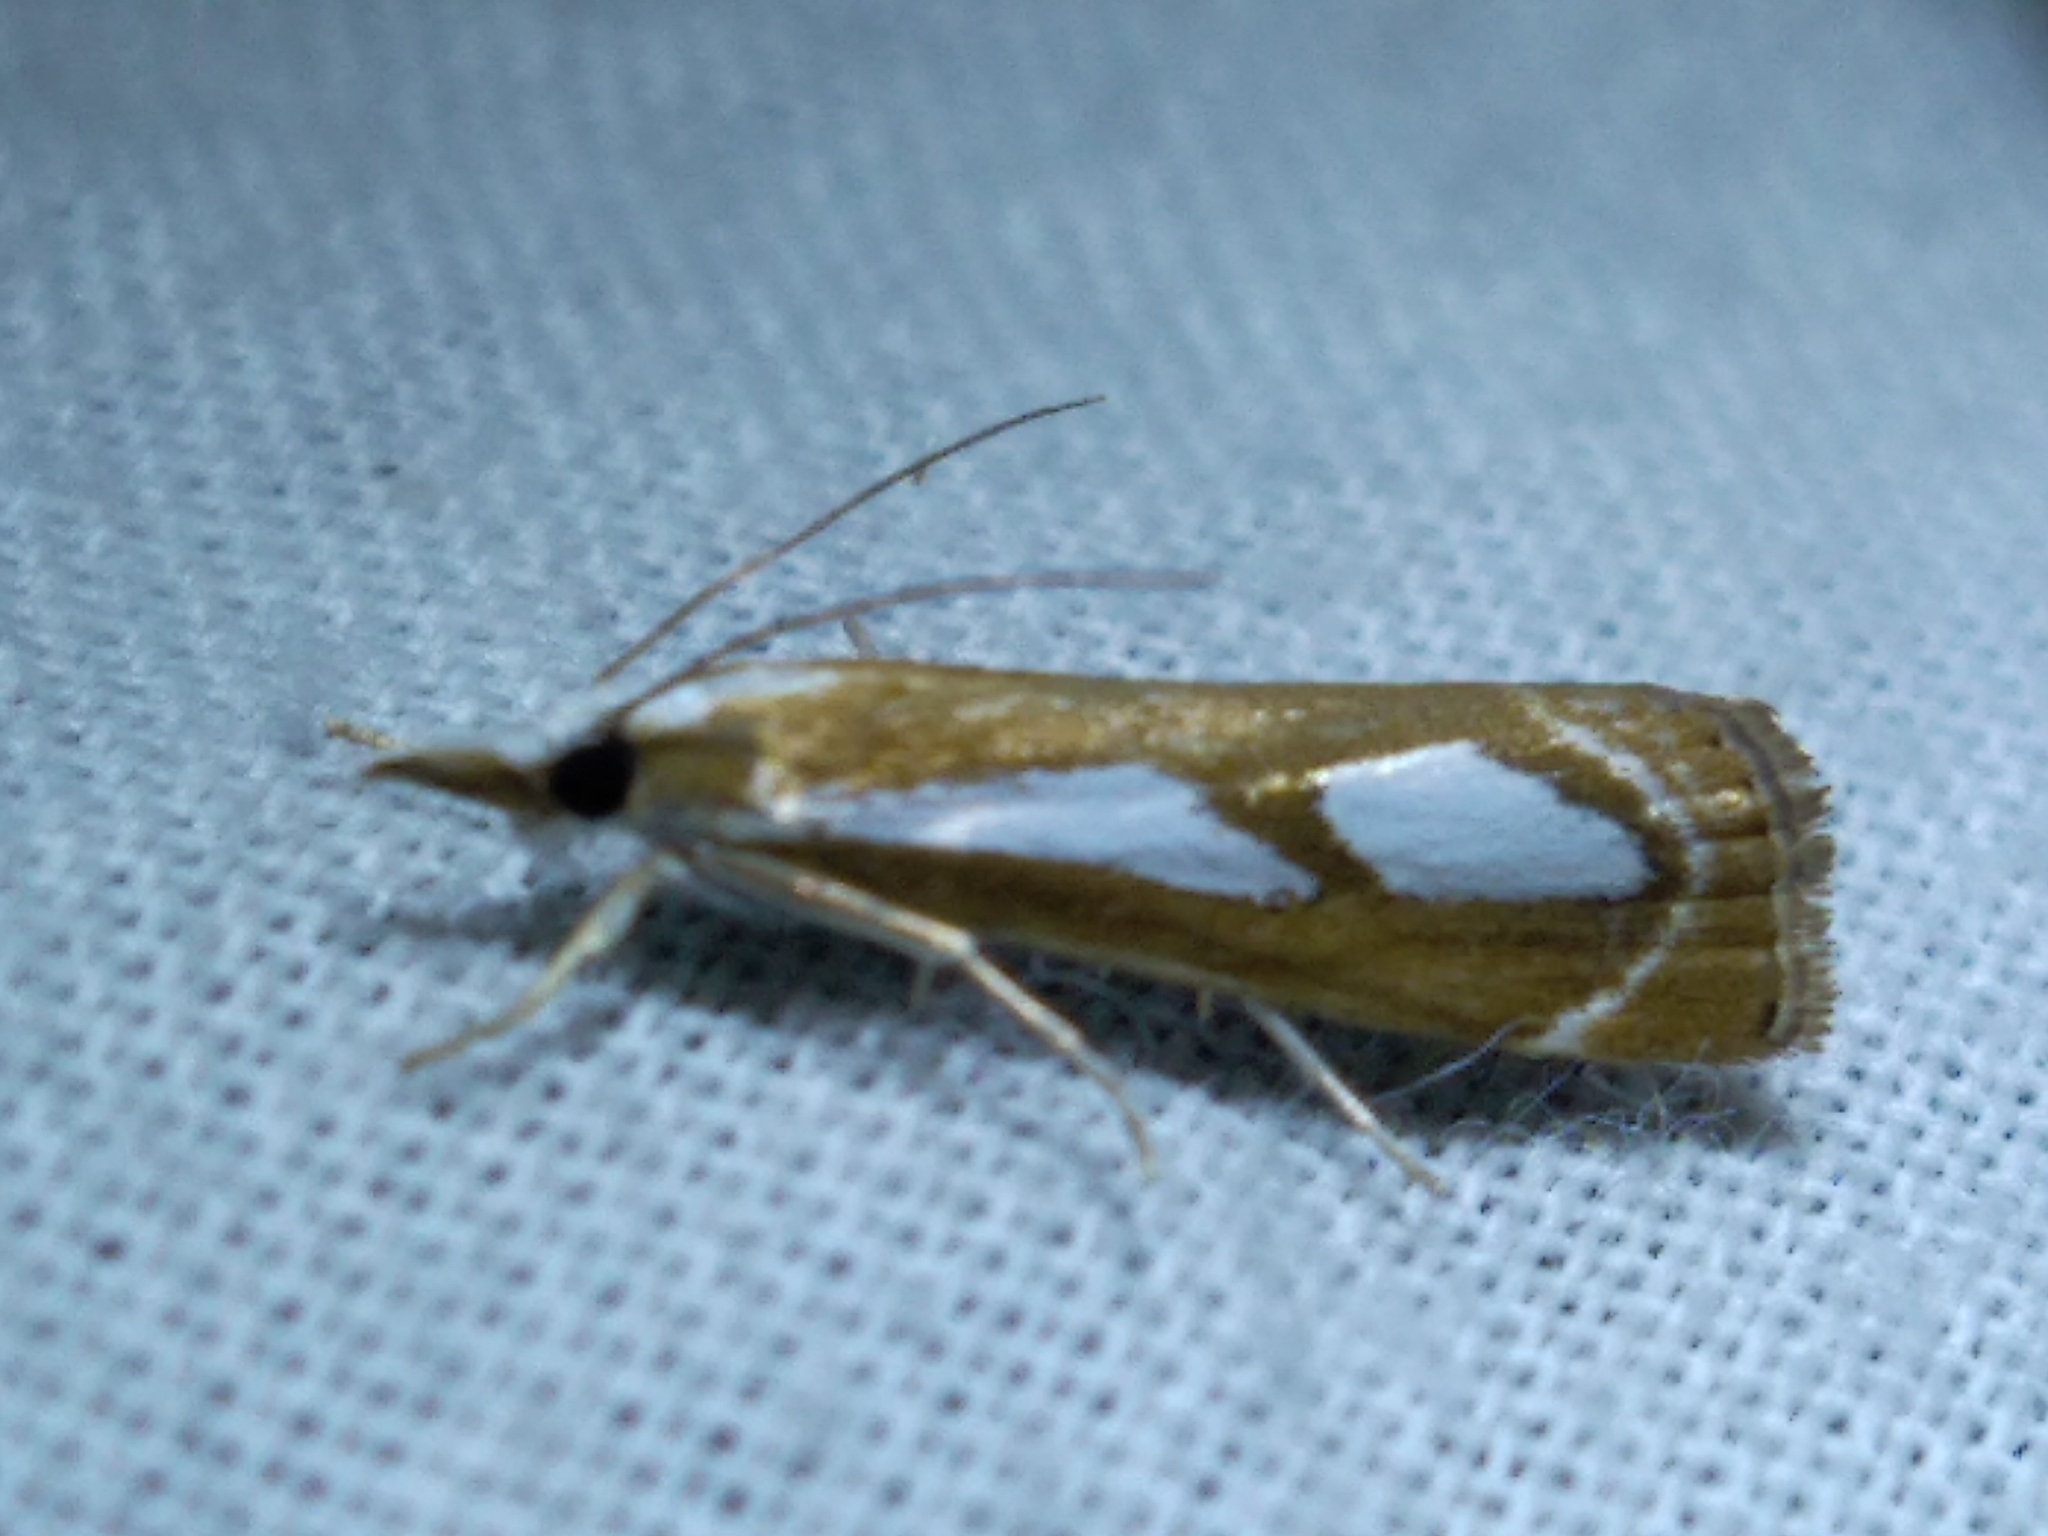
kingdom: Animalia
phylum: Arthropoda
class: Insecta
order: Lepidoptera
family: Crambidae
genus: Catoptria
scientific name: Catoptria mytilella
